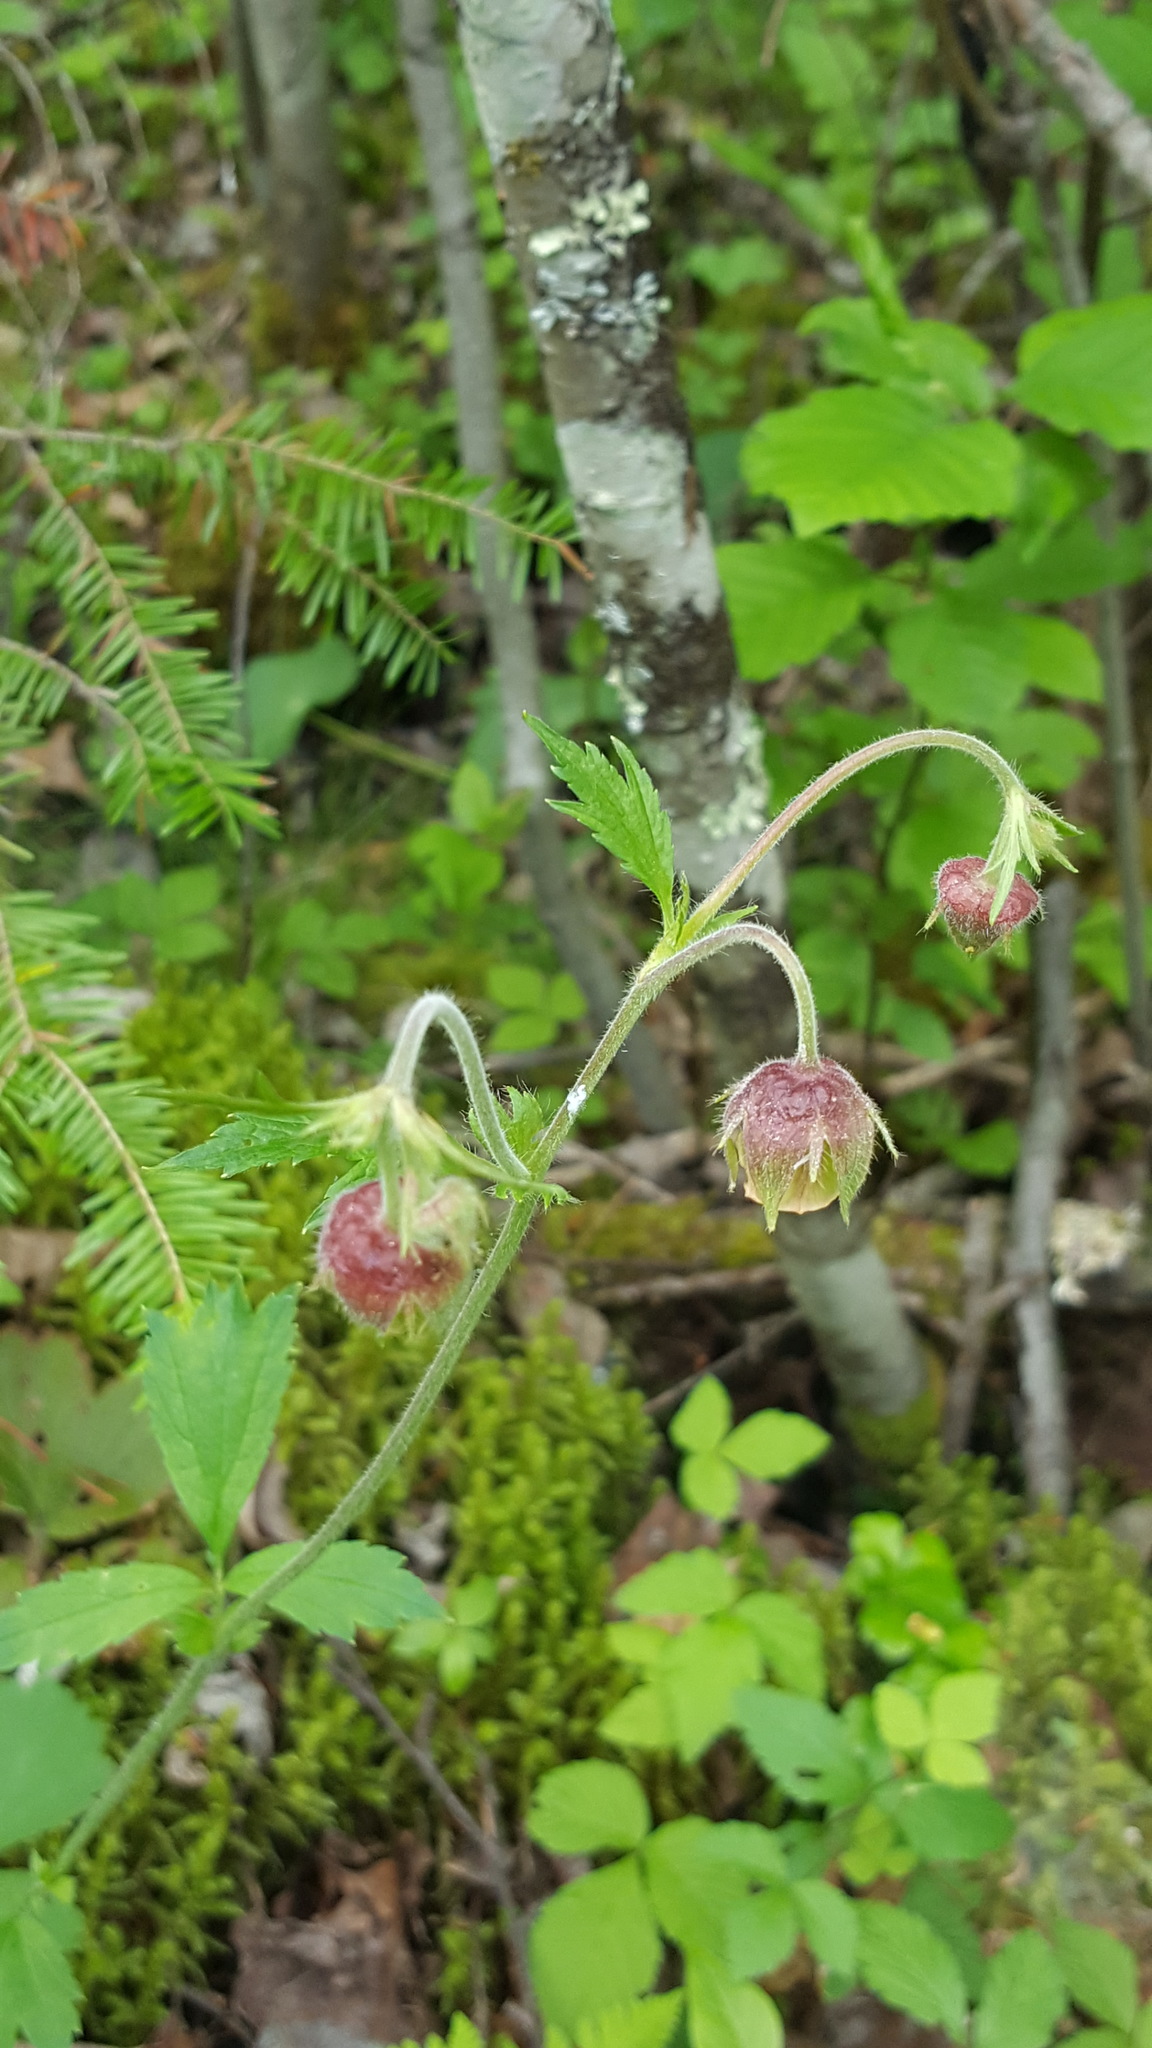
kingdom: Plantae
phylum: Tracheophyta
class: Magnoliopsida
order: Rosales
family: Rosaceae
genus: Geum
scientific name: Geum rivale
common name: Water avens
